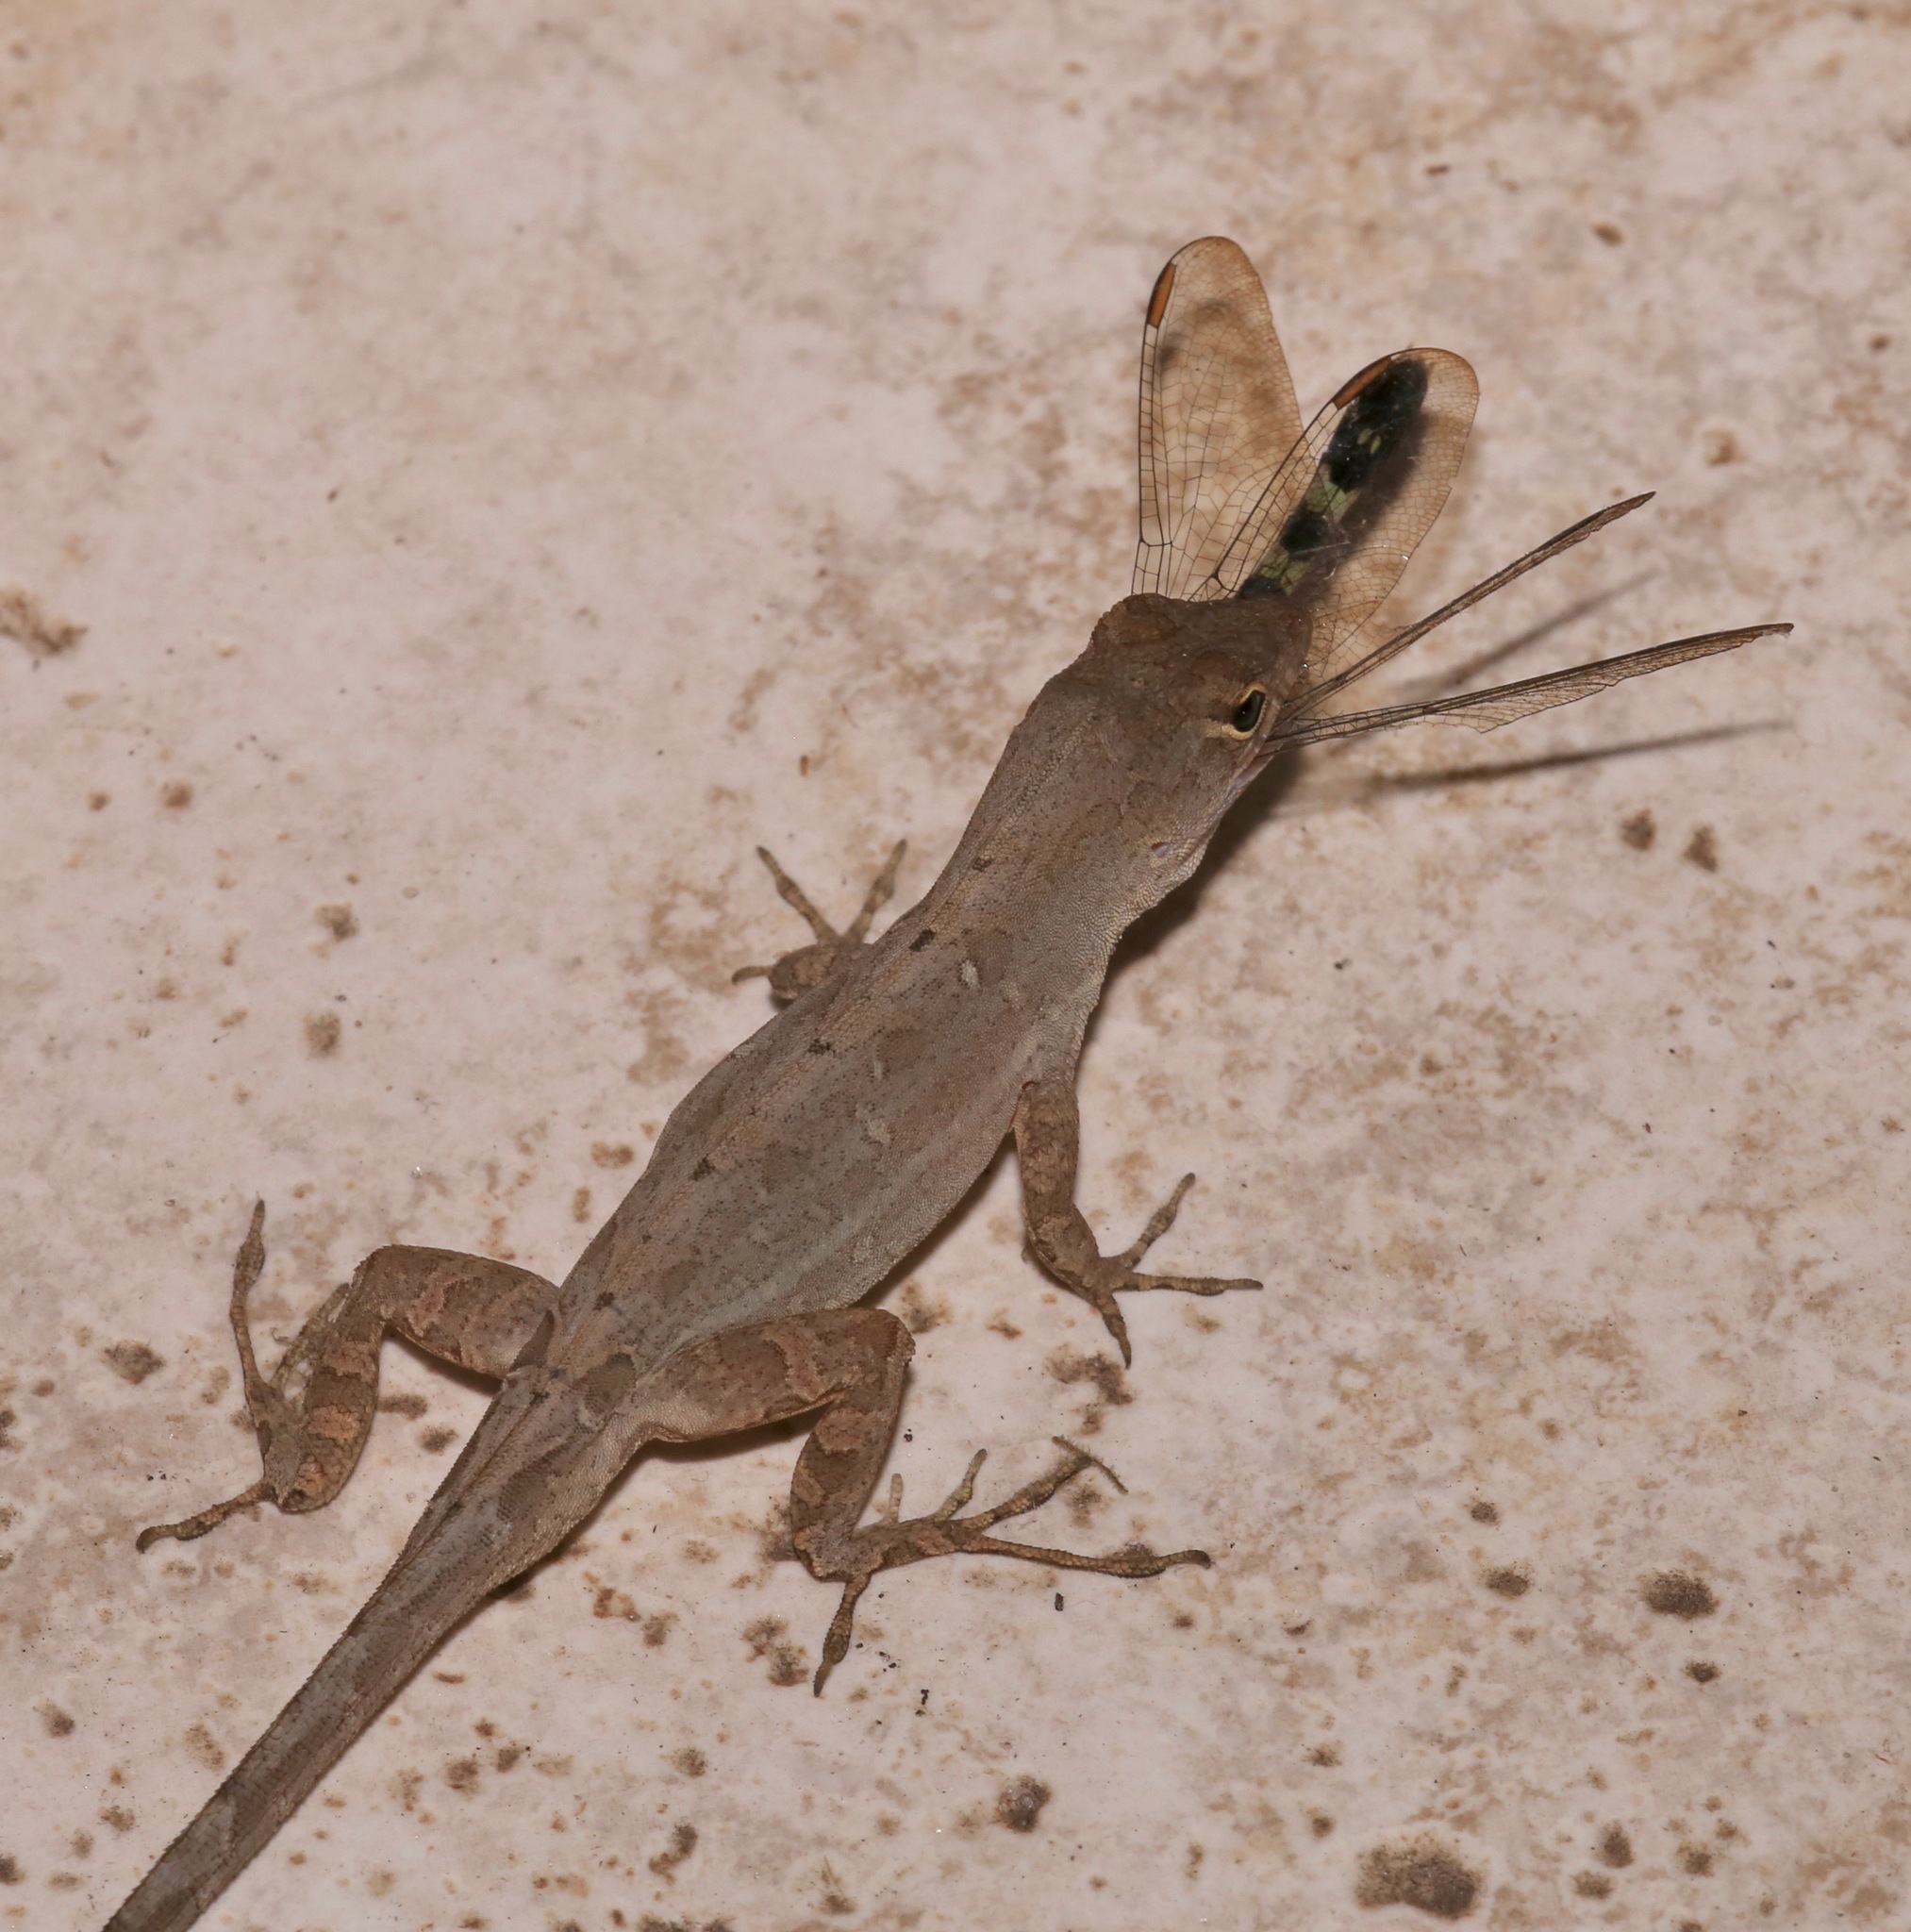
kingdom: Animalia
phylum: Chordata
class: Squamata
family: Dactyloidae
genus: Anolis
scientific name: Anolis sagrei
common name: Brown anole
